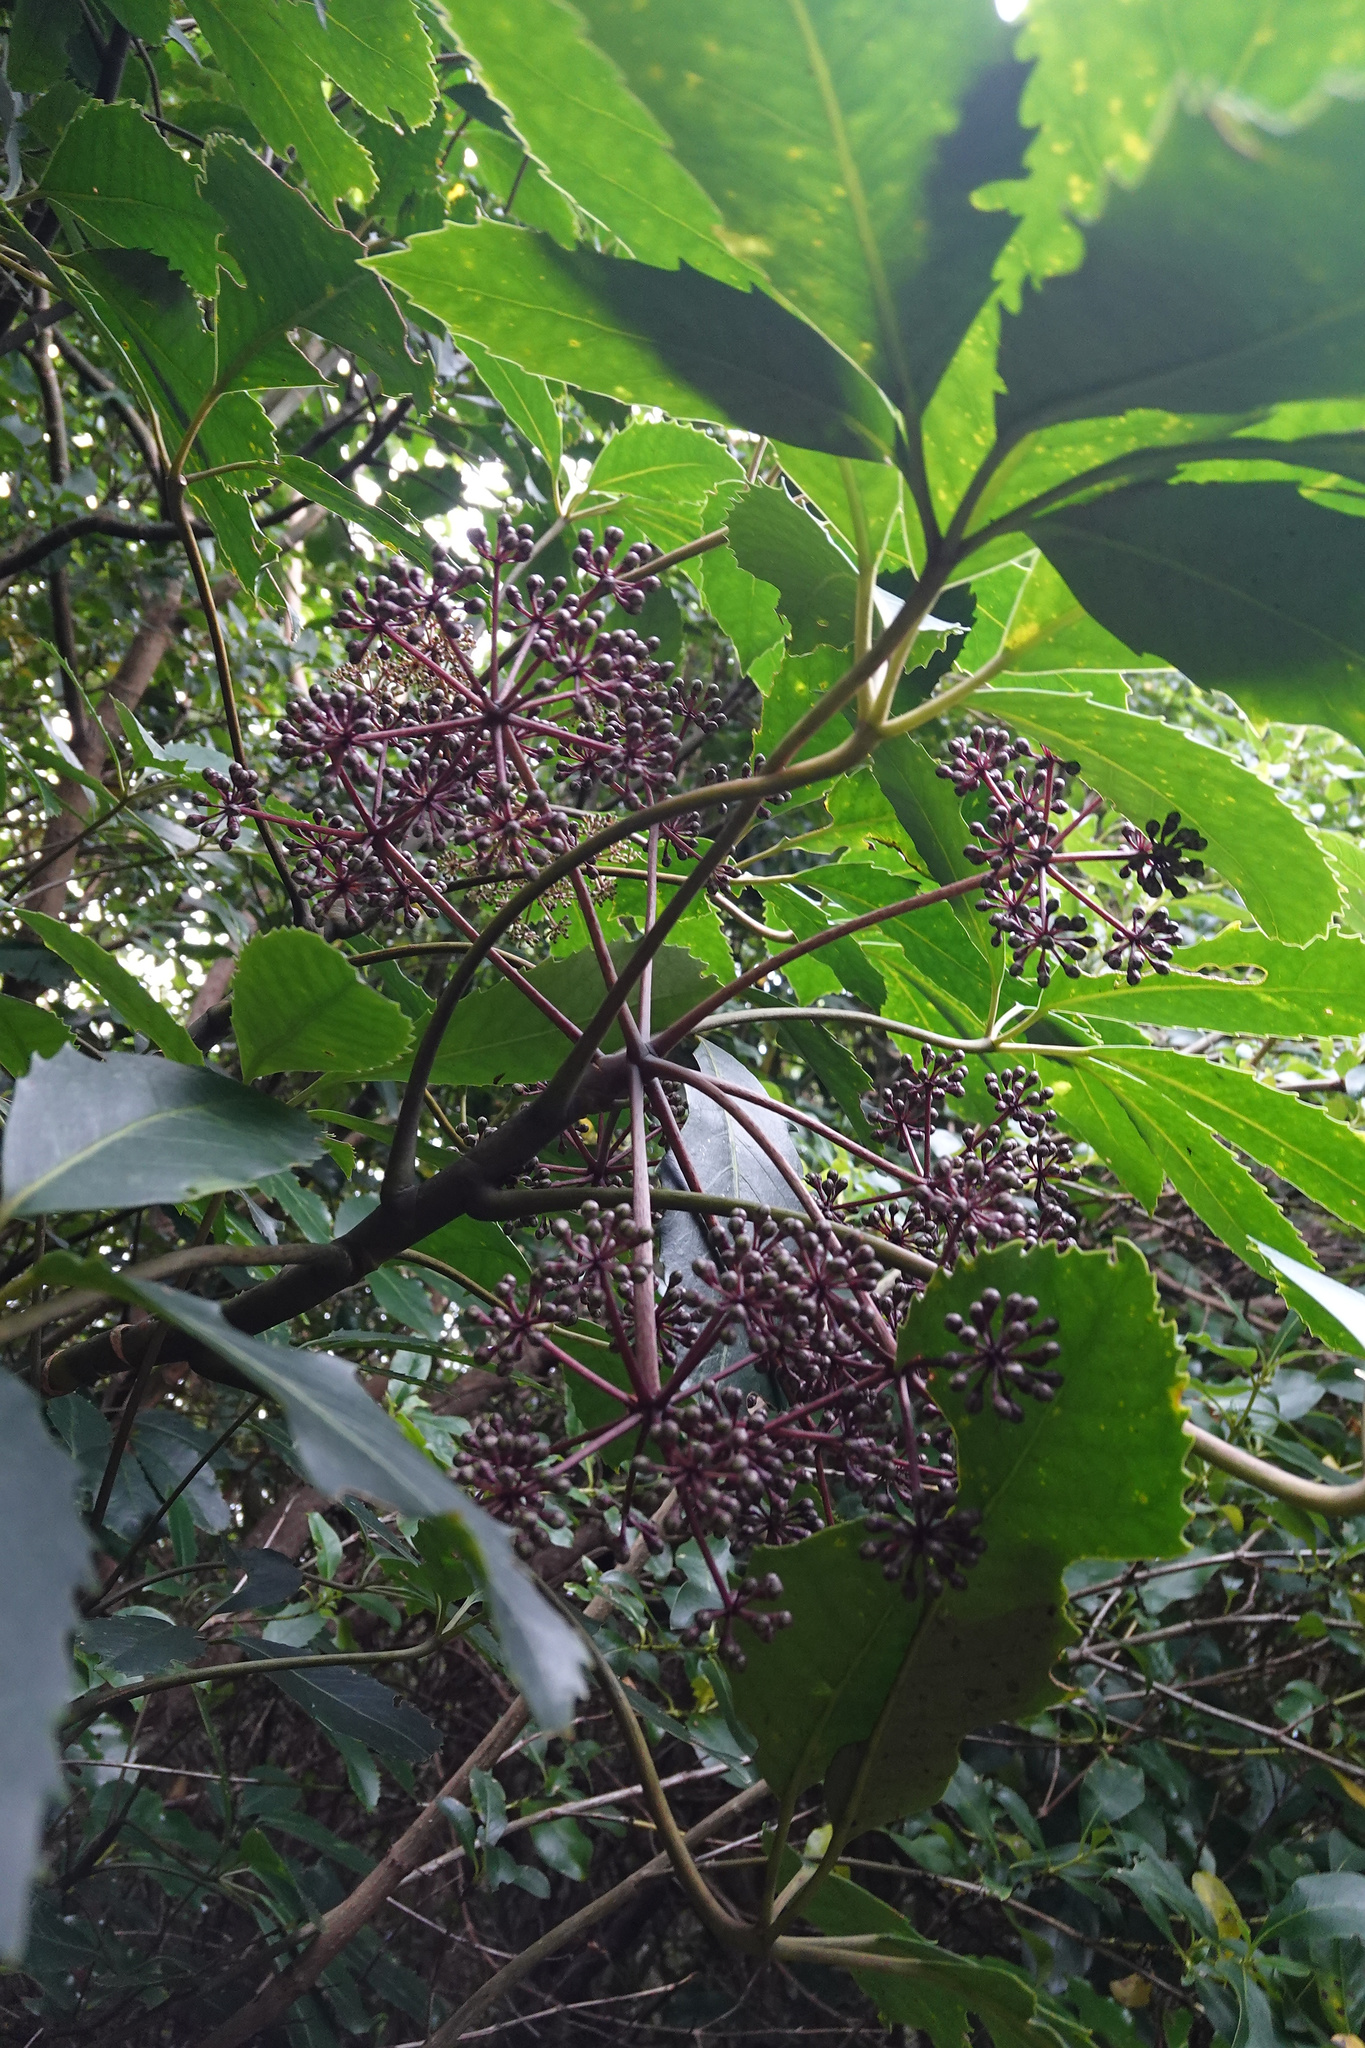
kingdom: Plantae
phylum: Tracheophyta
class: Magnoliopsida
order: Apiales
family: Araliaceae
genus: Neopanax
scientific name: Neopanax arboreus
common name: Five-fingers
